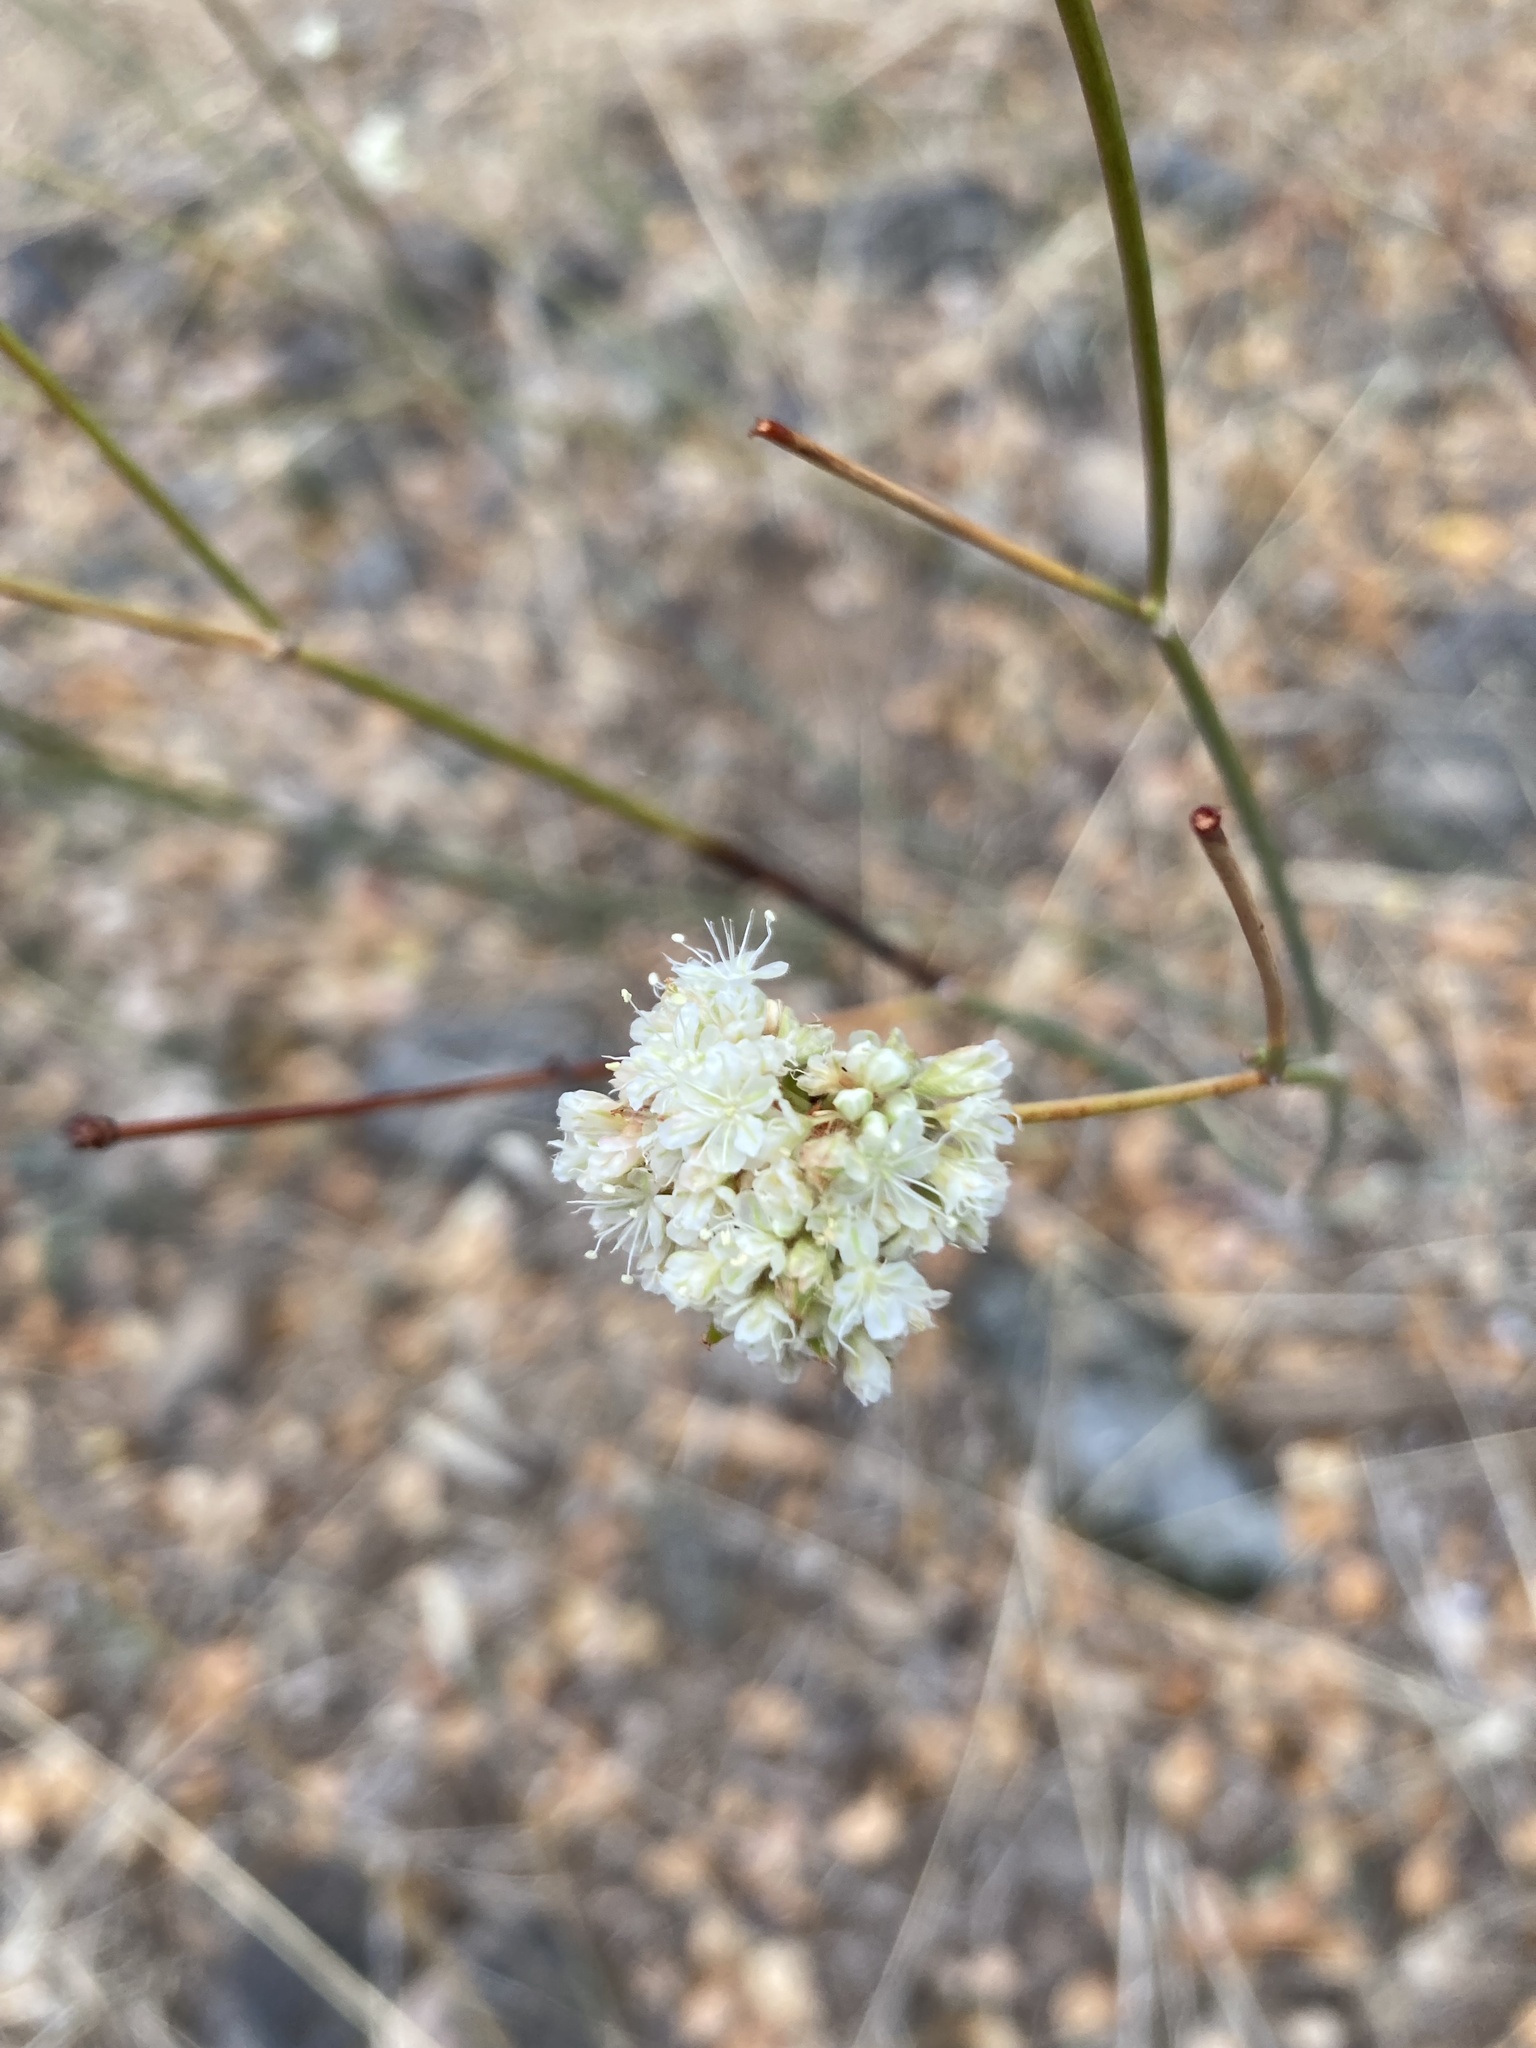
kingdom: Plantae
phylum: Tracheophyta
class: Magnoliopsida
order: Caryophyllales
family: Polygonaceae
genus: Eriogonum
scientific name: Eriogonum nudum
